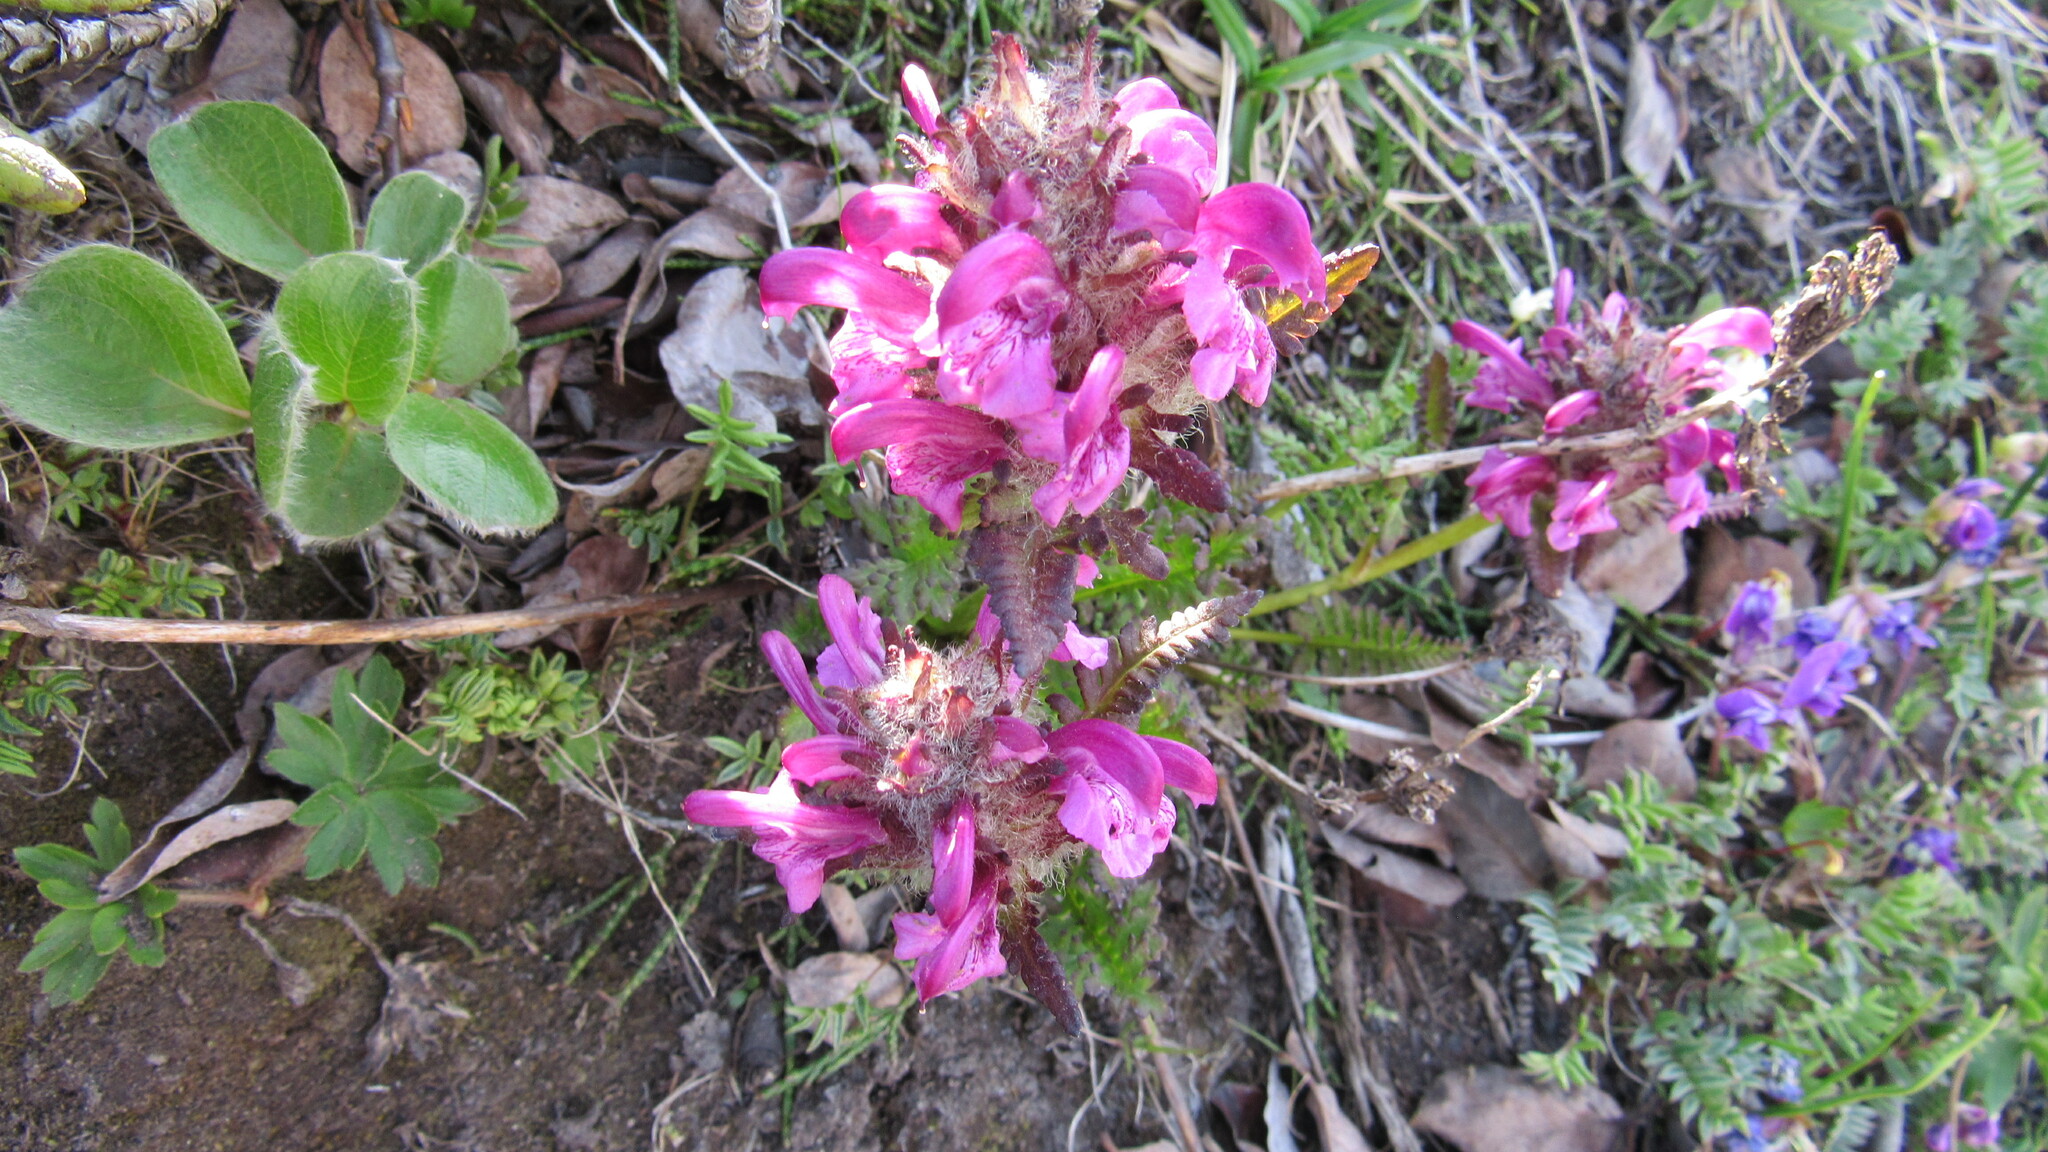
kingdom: Plantae
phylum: Tracheophyta
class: Magnoliopsida
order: Lamiales
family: Orobanchaceae
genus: Pedicularis
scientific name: Pedicularis verticillata
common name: Whorled lousewort
